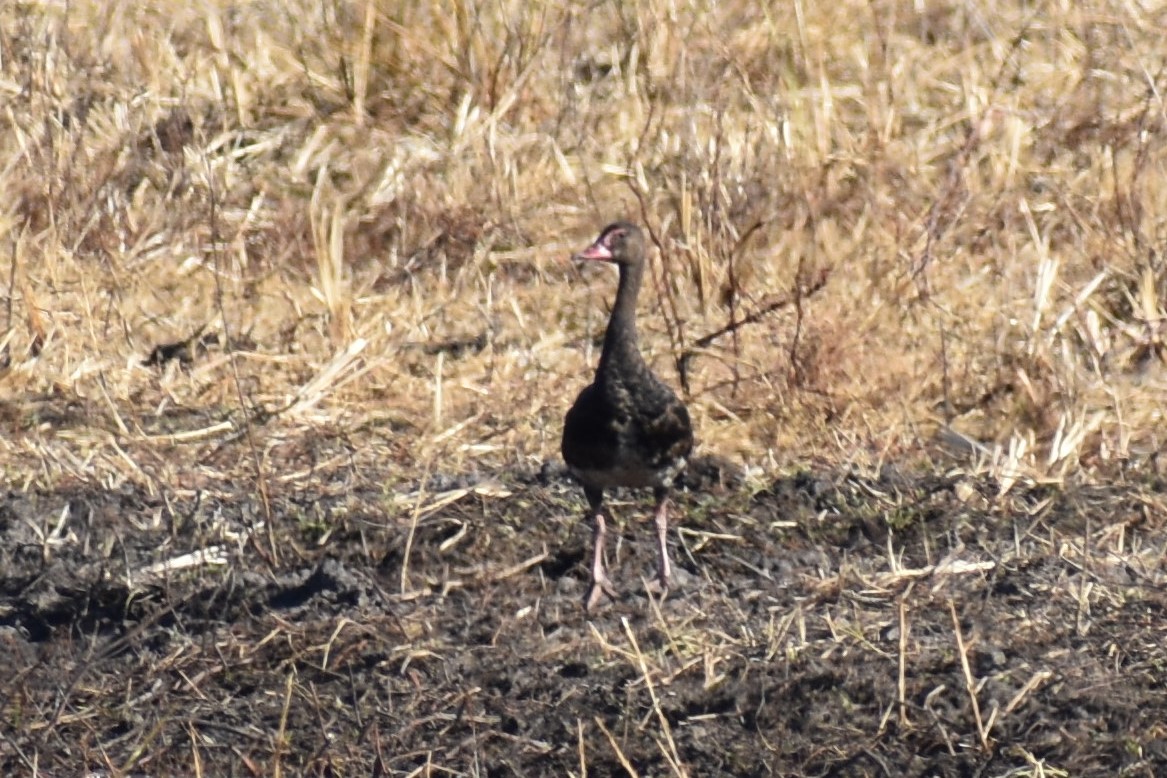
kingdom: Animalia
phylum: Chordata
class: Aves
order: Anseriformes
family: Anatidae
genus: Plectropterus
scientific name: Plectropterus gambensis
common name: Spur-winged goose
